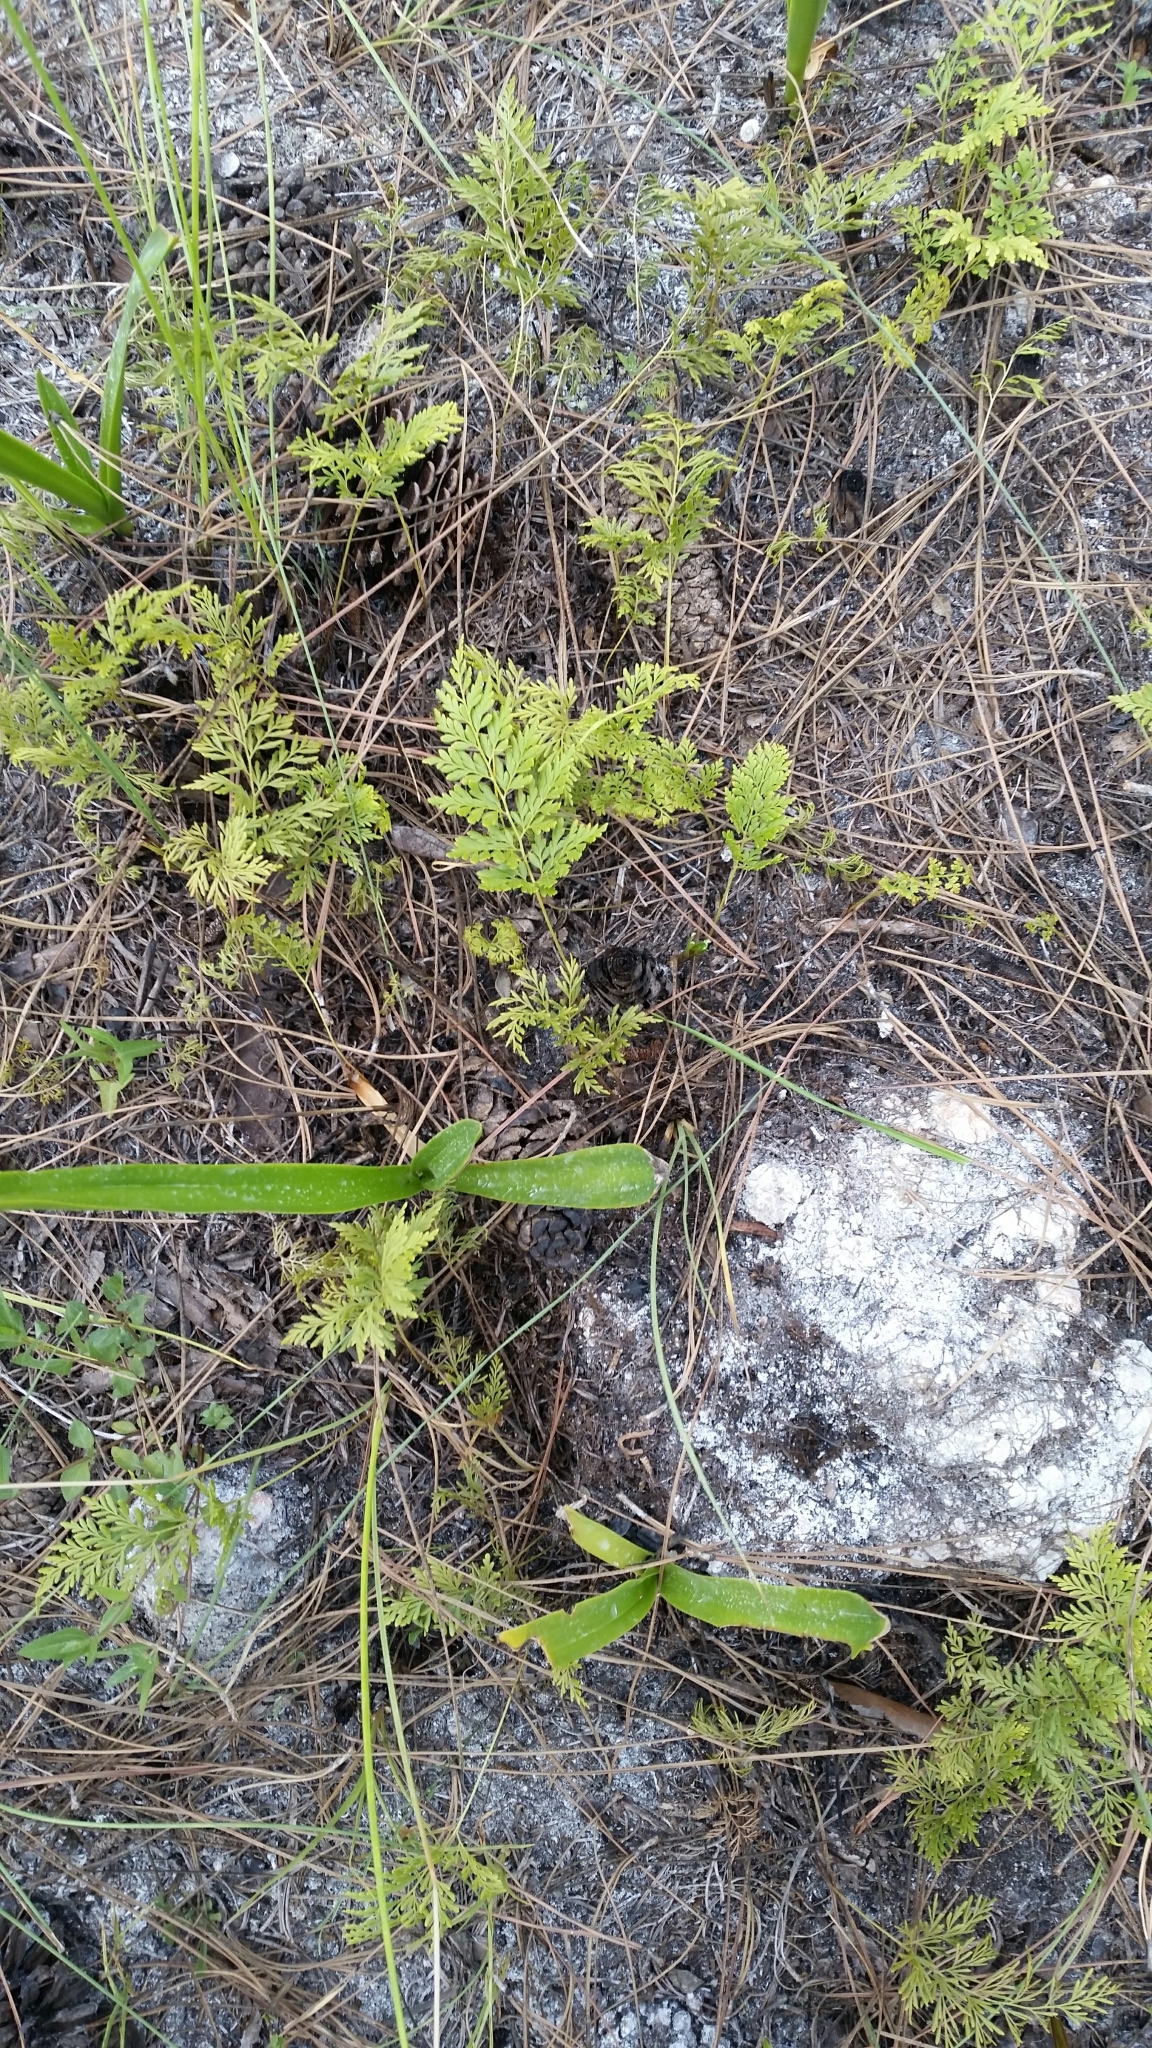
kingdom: Plantae
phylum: Tracheophyta
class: Polypodiopsida
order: Schizaeales
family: Anemiaceae
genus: Anemia
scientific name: Anemia adiantifolia
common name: Pine fern
